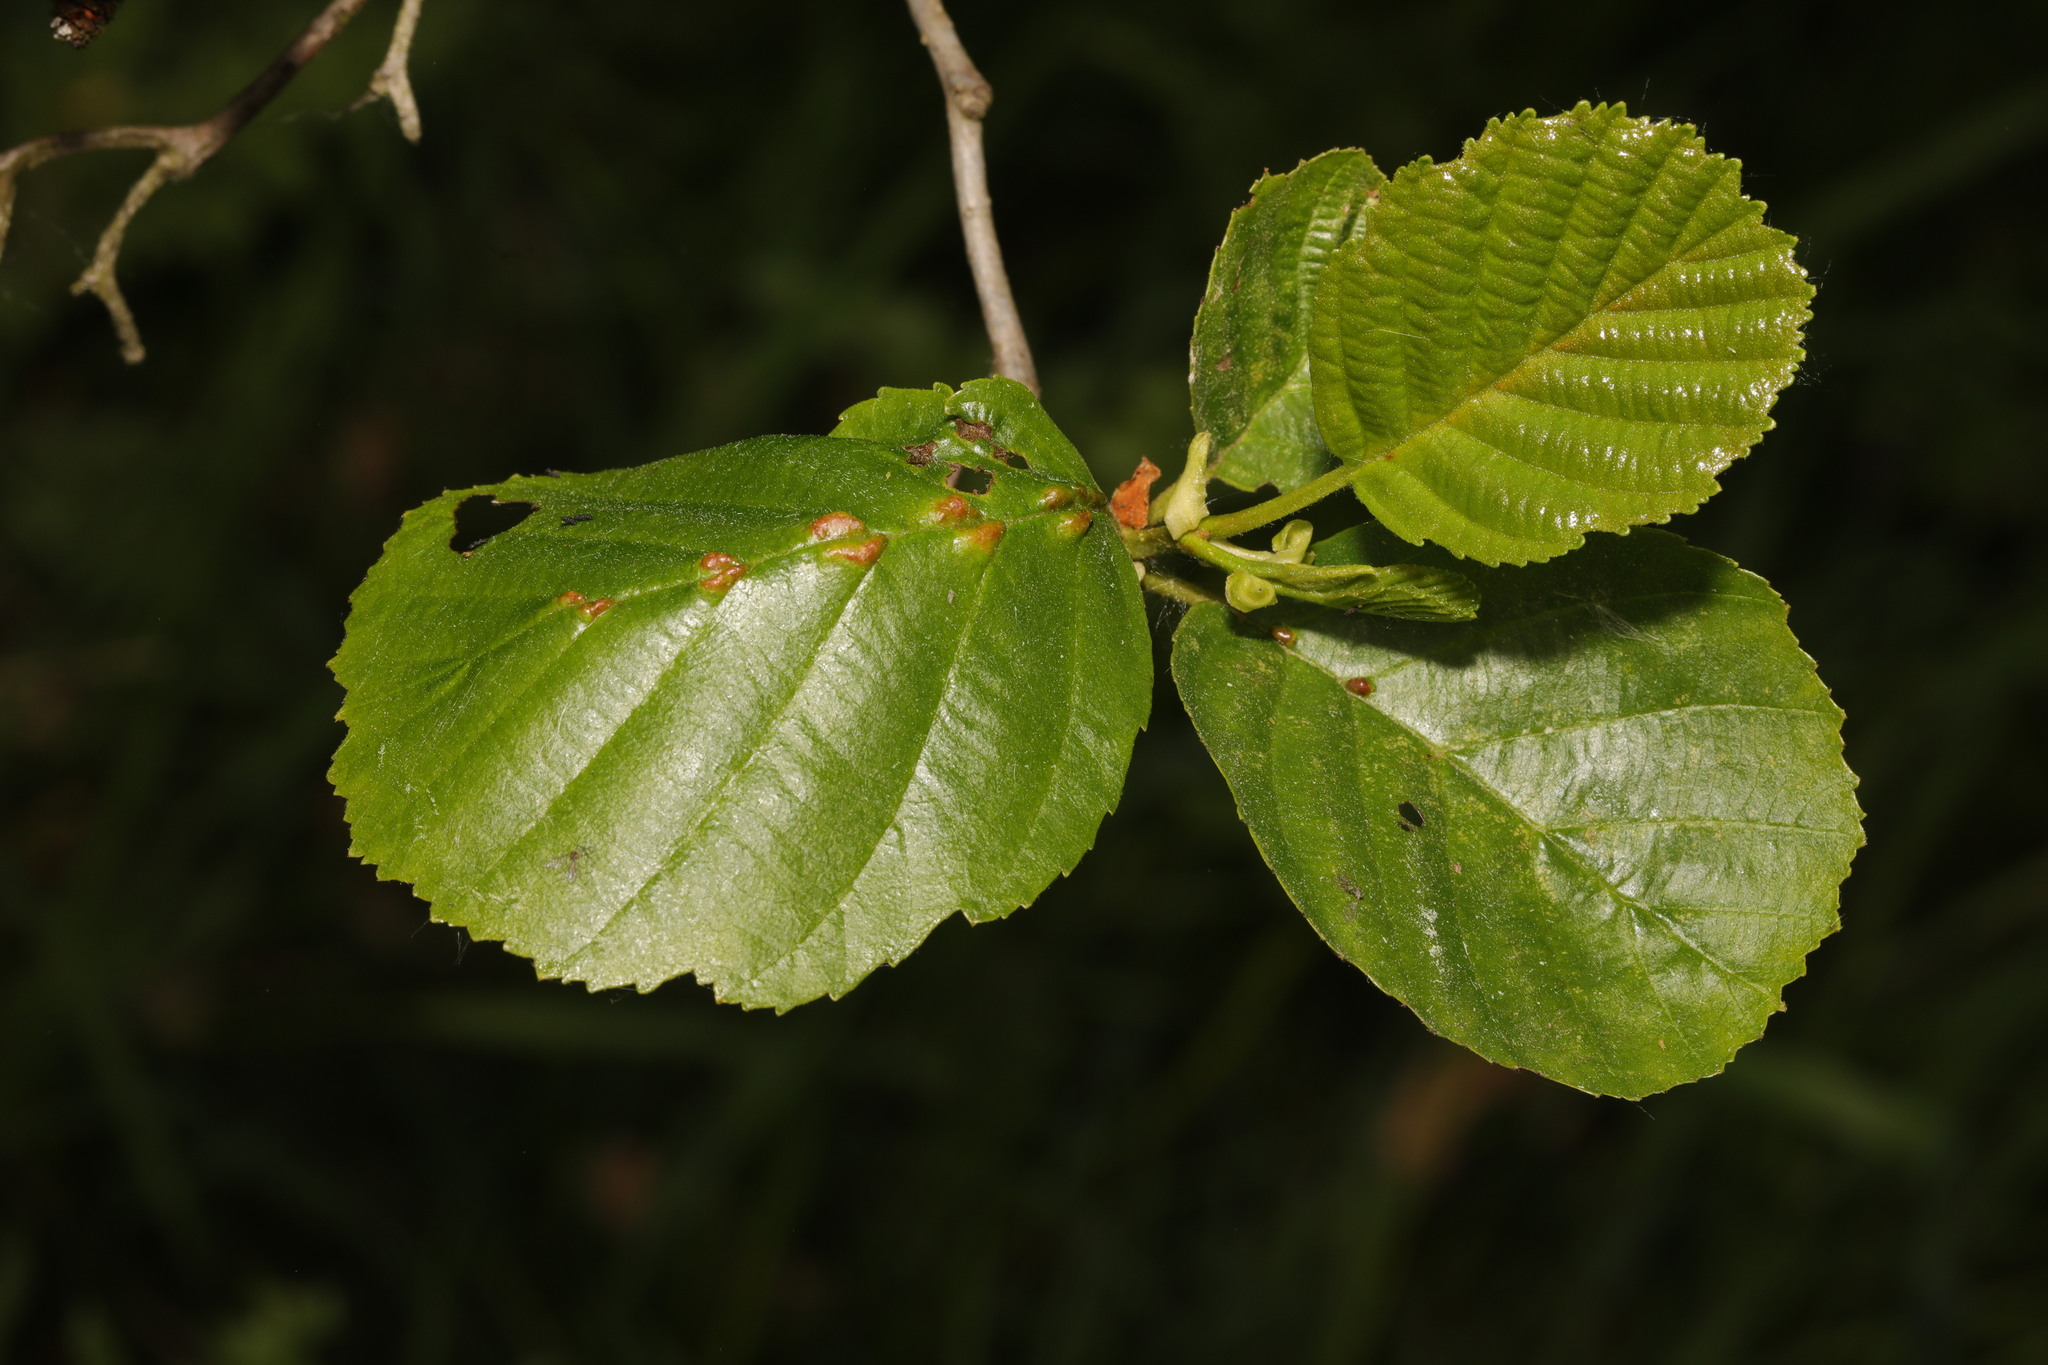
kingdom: Plantae
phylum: Tracheophyta
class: Magnoliopsida
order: Fagales
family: Betulaceae
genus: Alnus
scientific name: Alnus glutinosa
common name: Black alder
